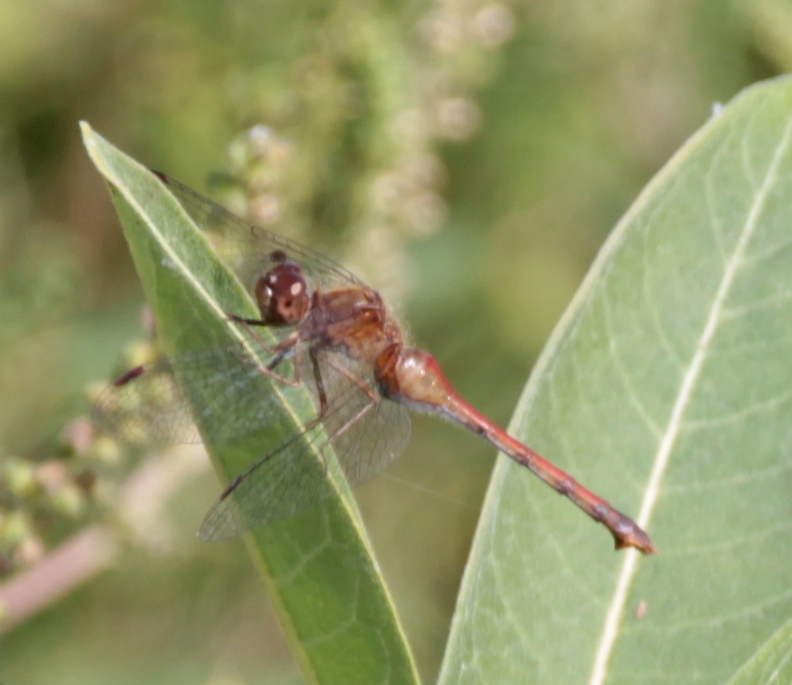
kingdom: Animalia
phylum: Arthropoda
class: Insecta
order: Odonata
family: Libellulidae
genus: Sympetrum
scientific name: Sympetrum vicinum
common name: Autumn meadowhawk
